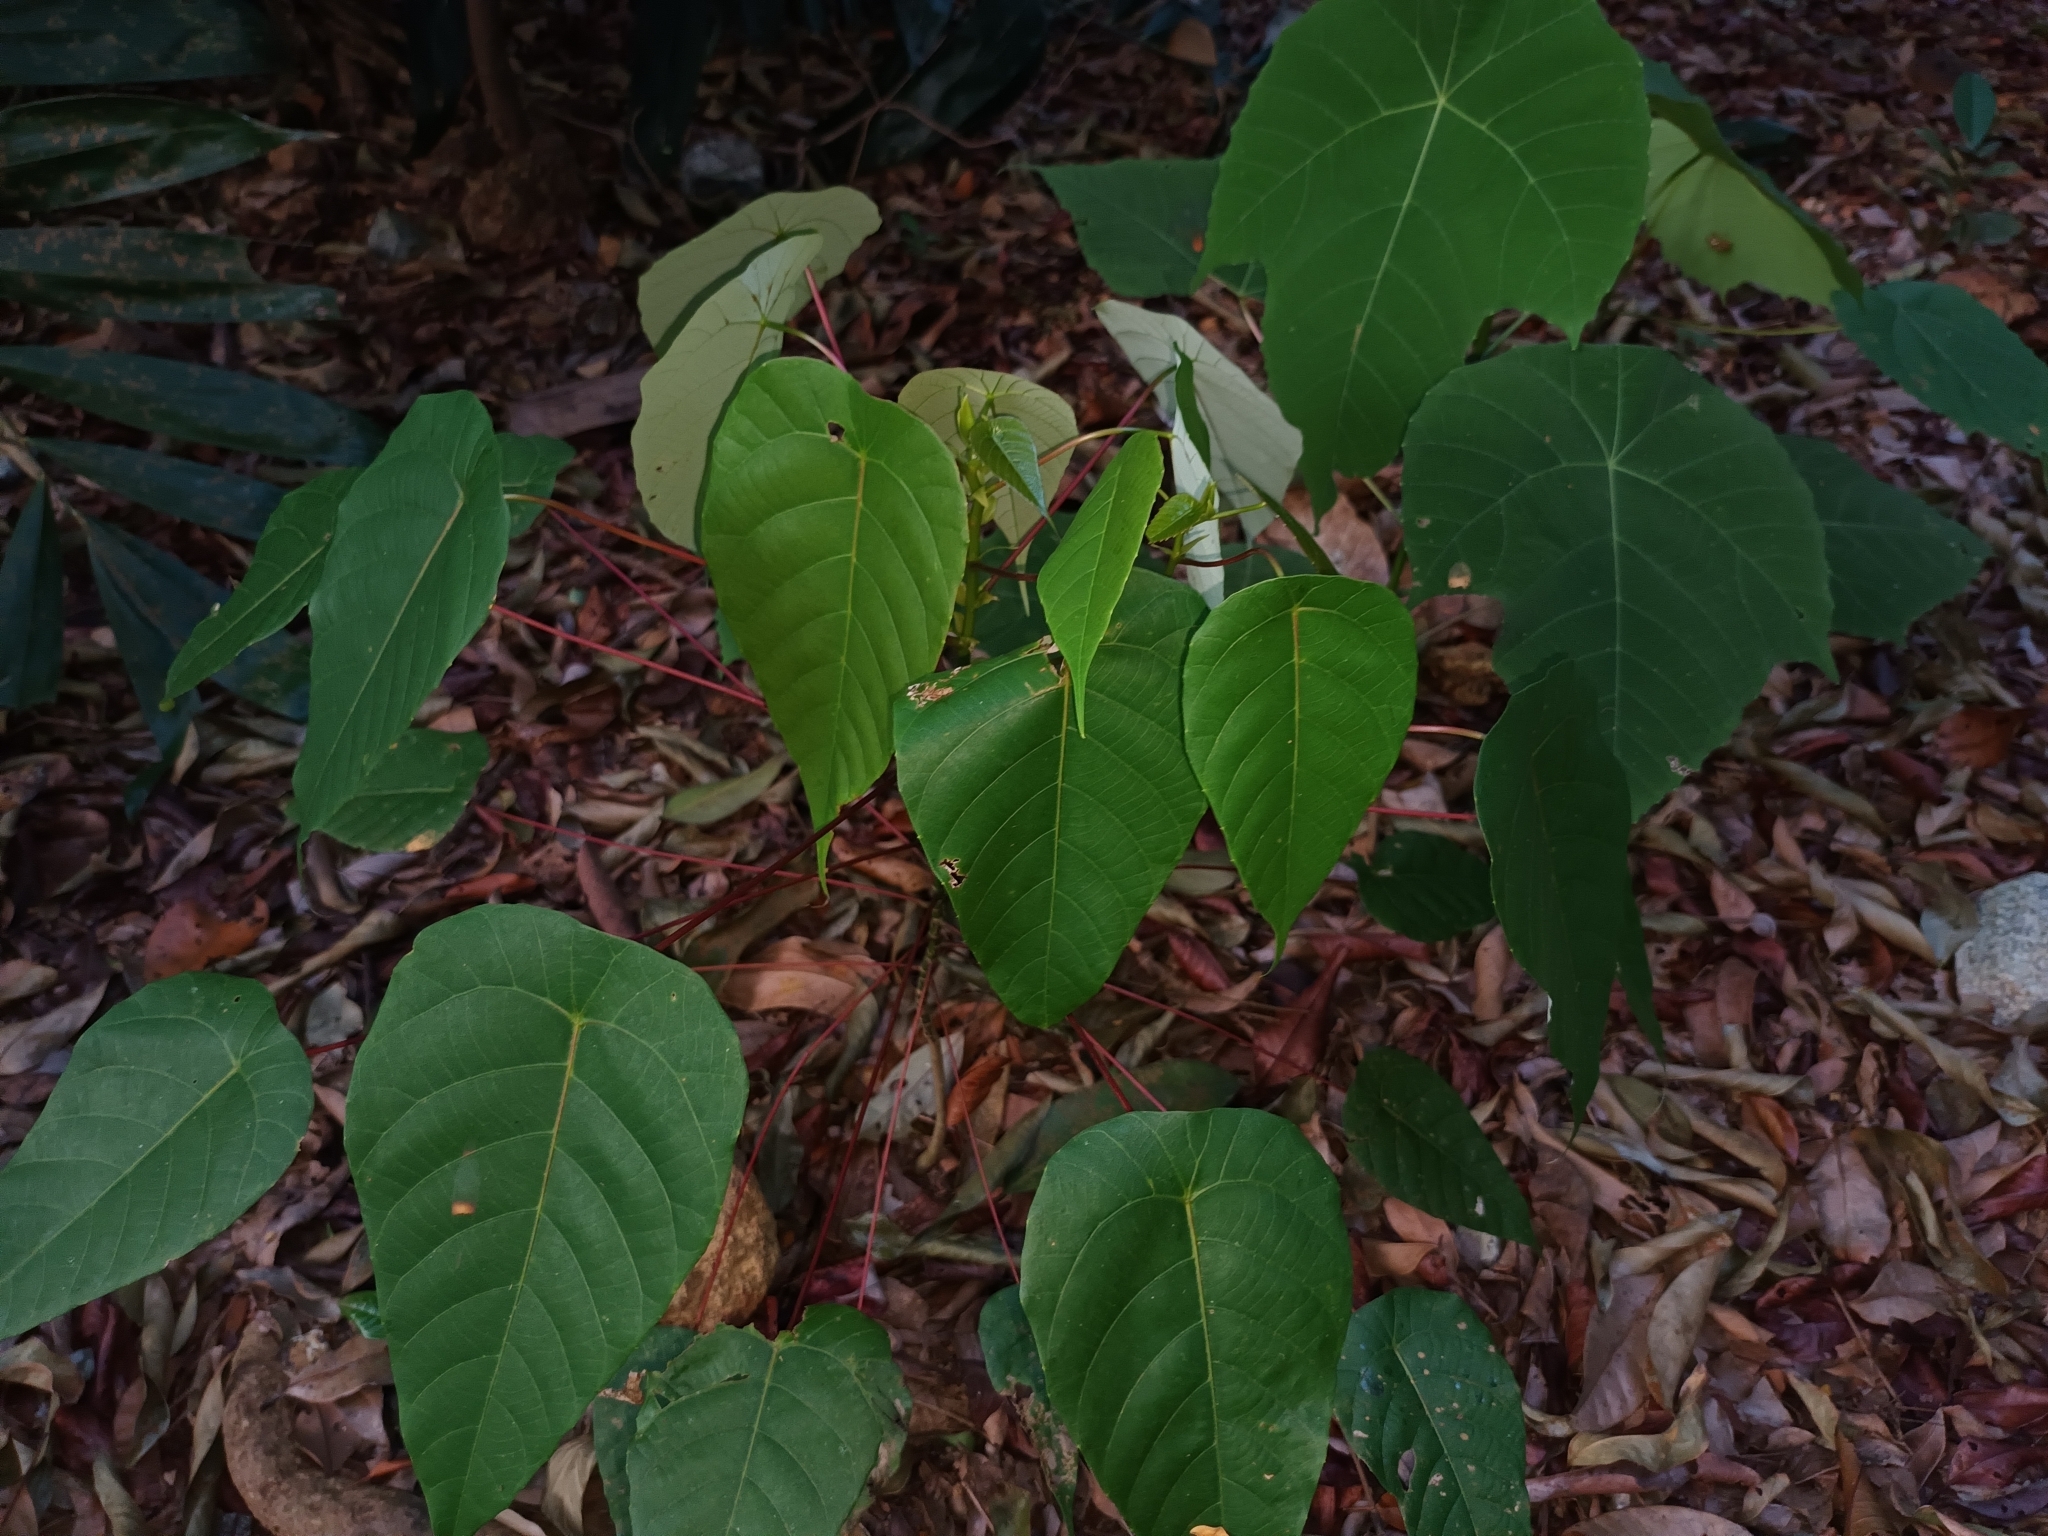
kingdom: Plantae
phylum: Tracheophyta
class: Magnoliopsida
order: Malpighiales
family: Euphorbiaceae
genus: Macaranga
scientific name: Macaranga hullettii
